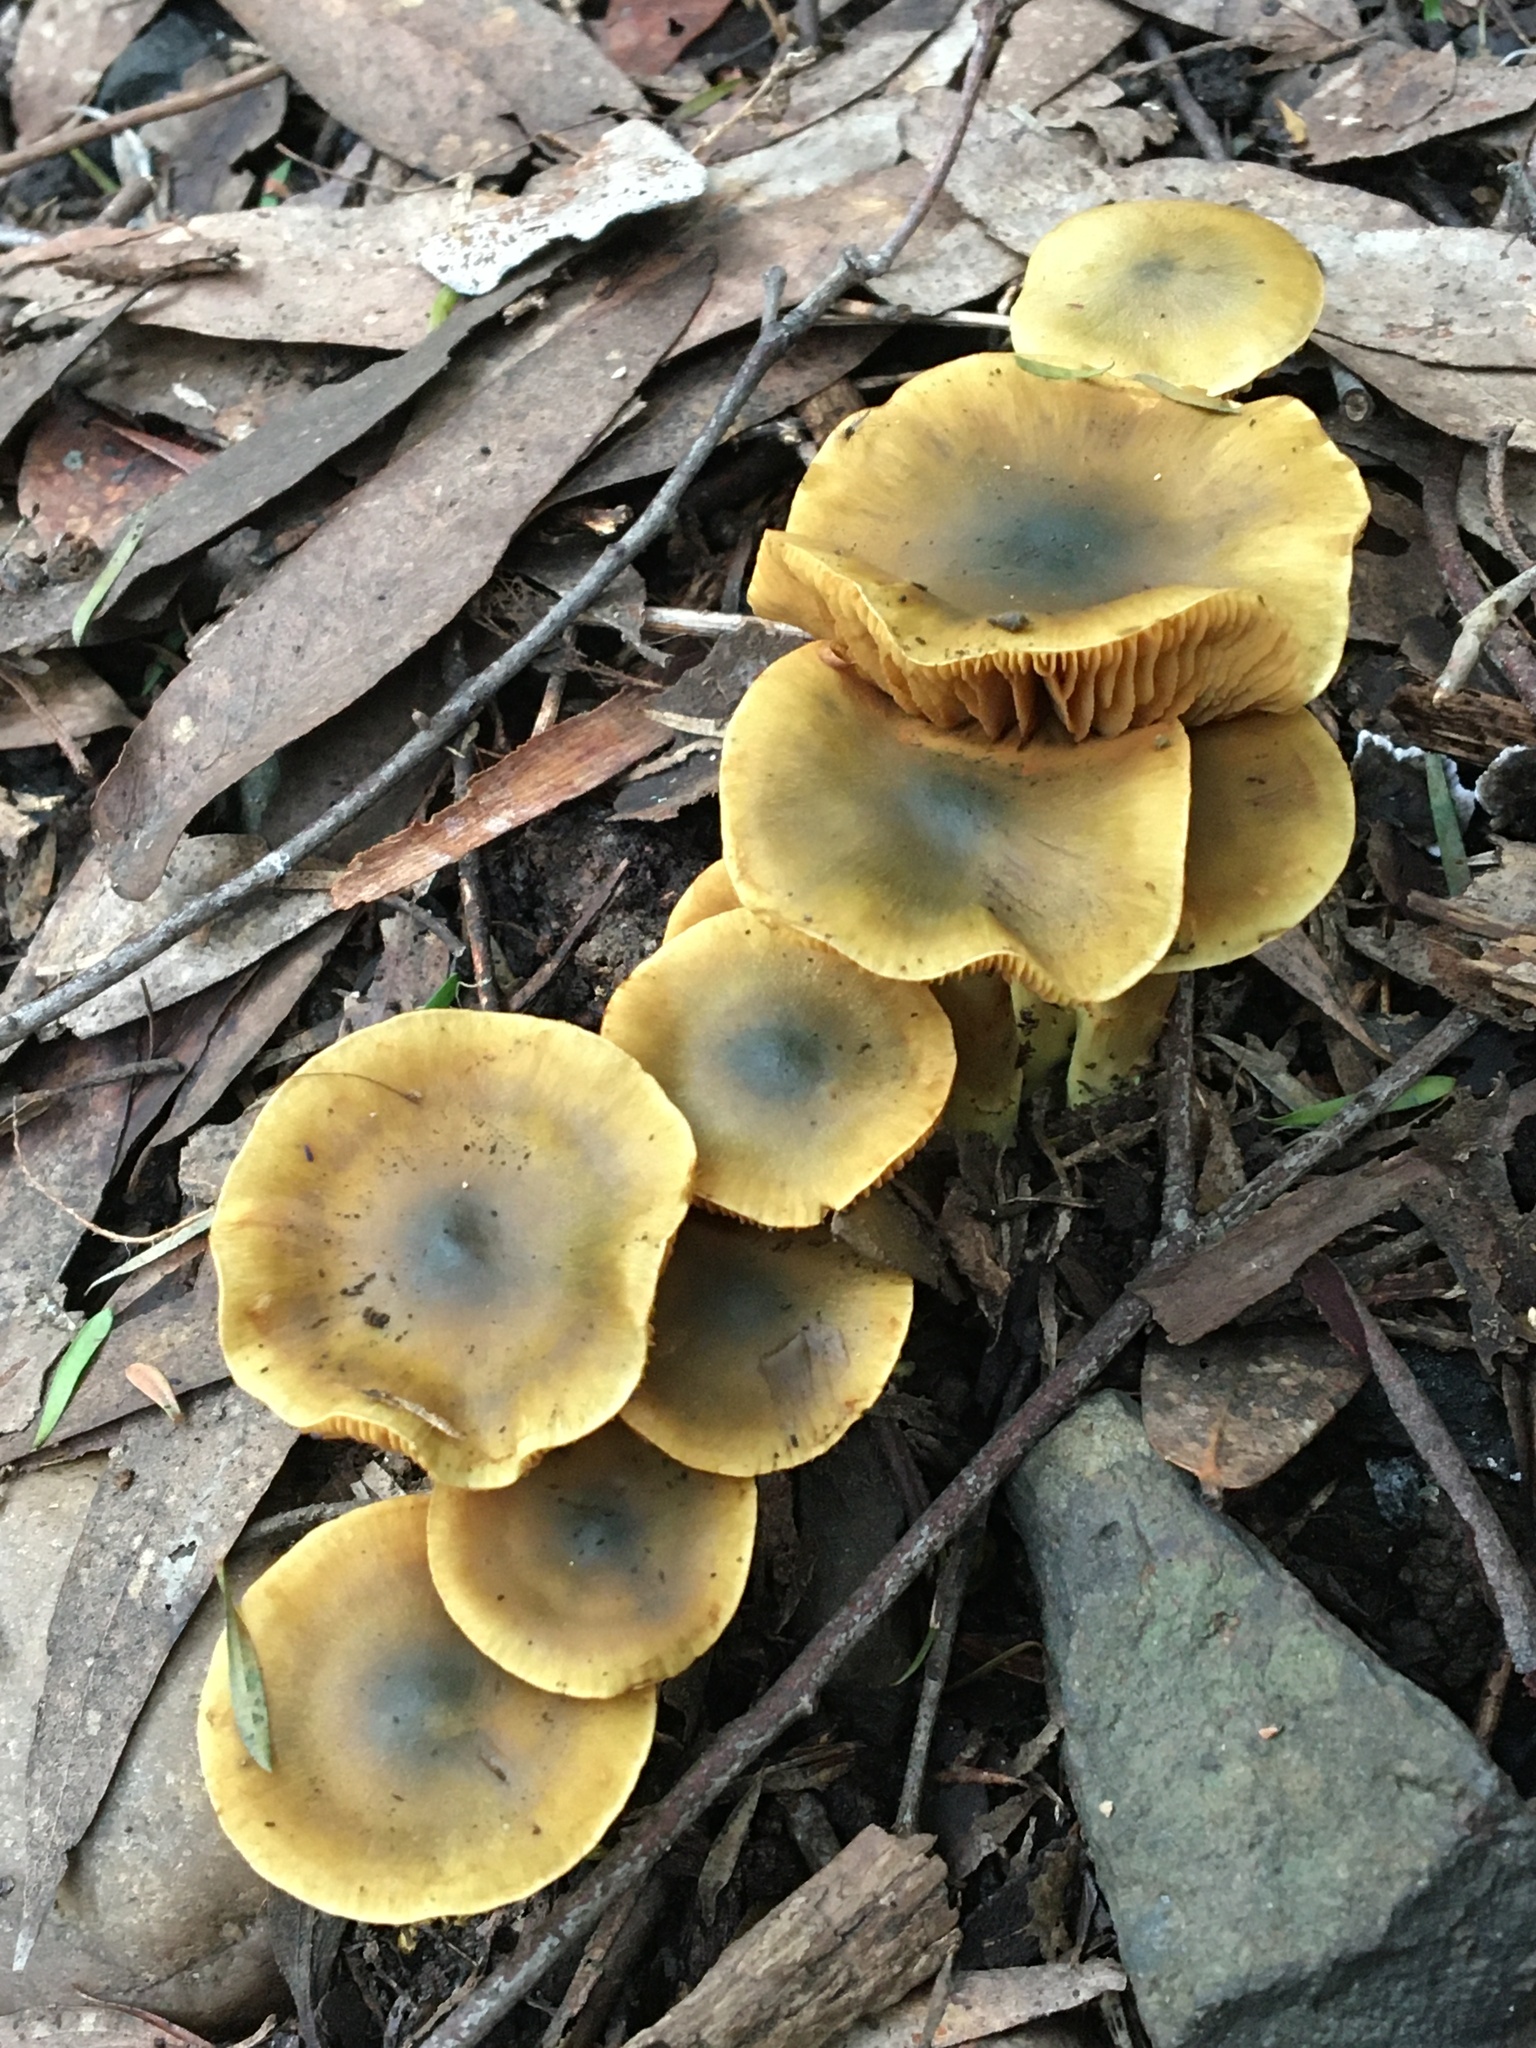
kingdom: Fungi
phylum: Basidiomycota
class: Agaricomycetes
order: Agaricales
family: Cortinariaceae
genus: Cortinarius
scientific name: Cortinarius austrovenetus
